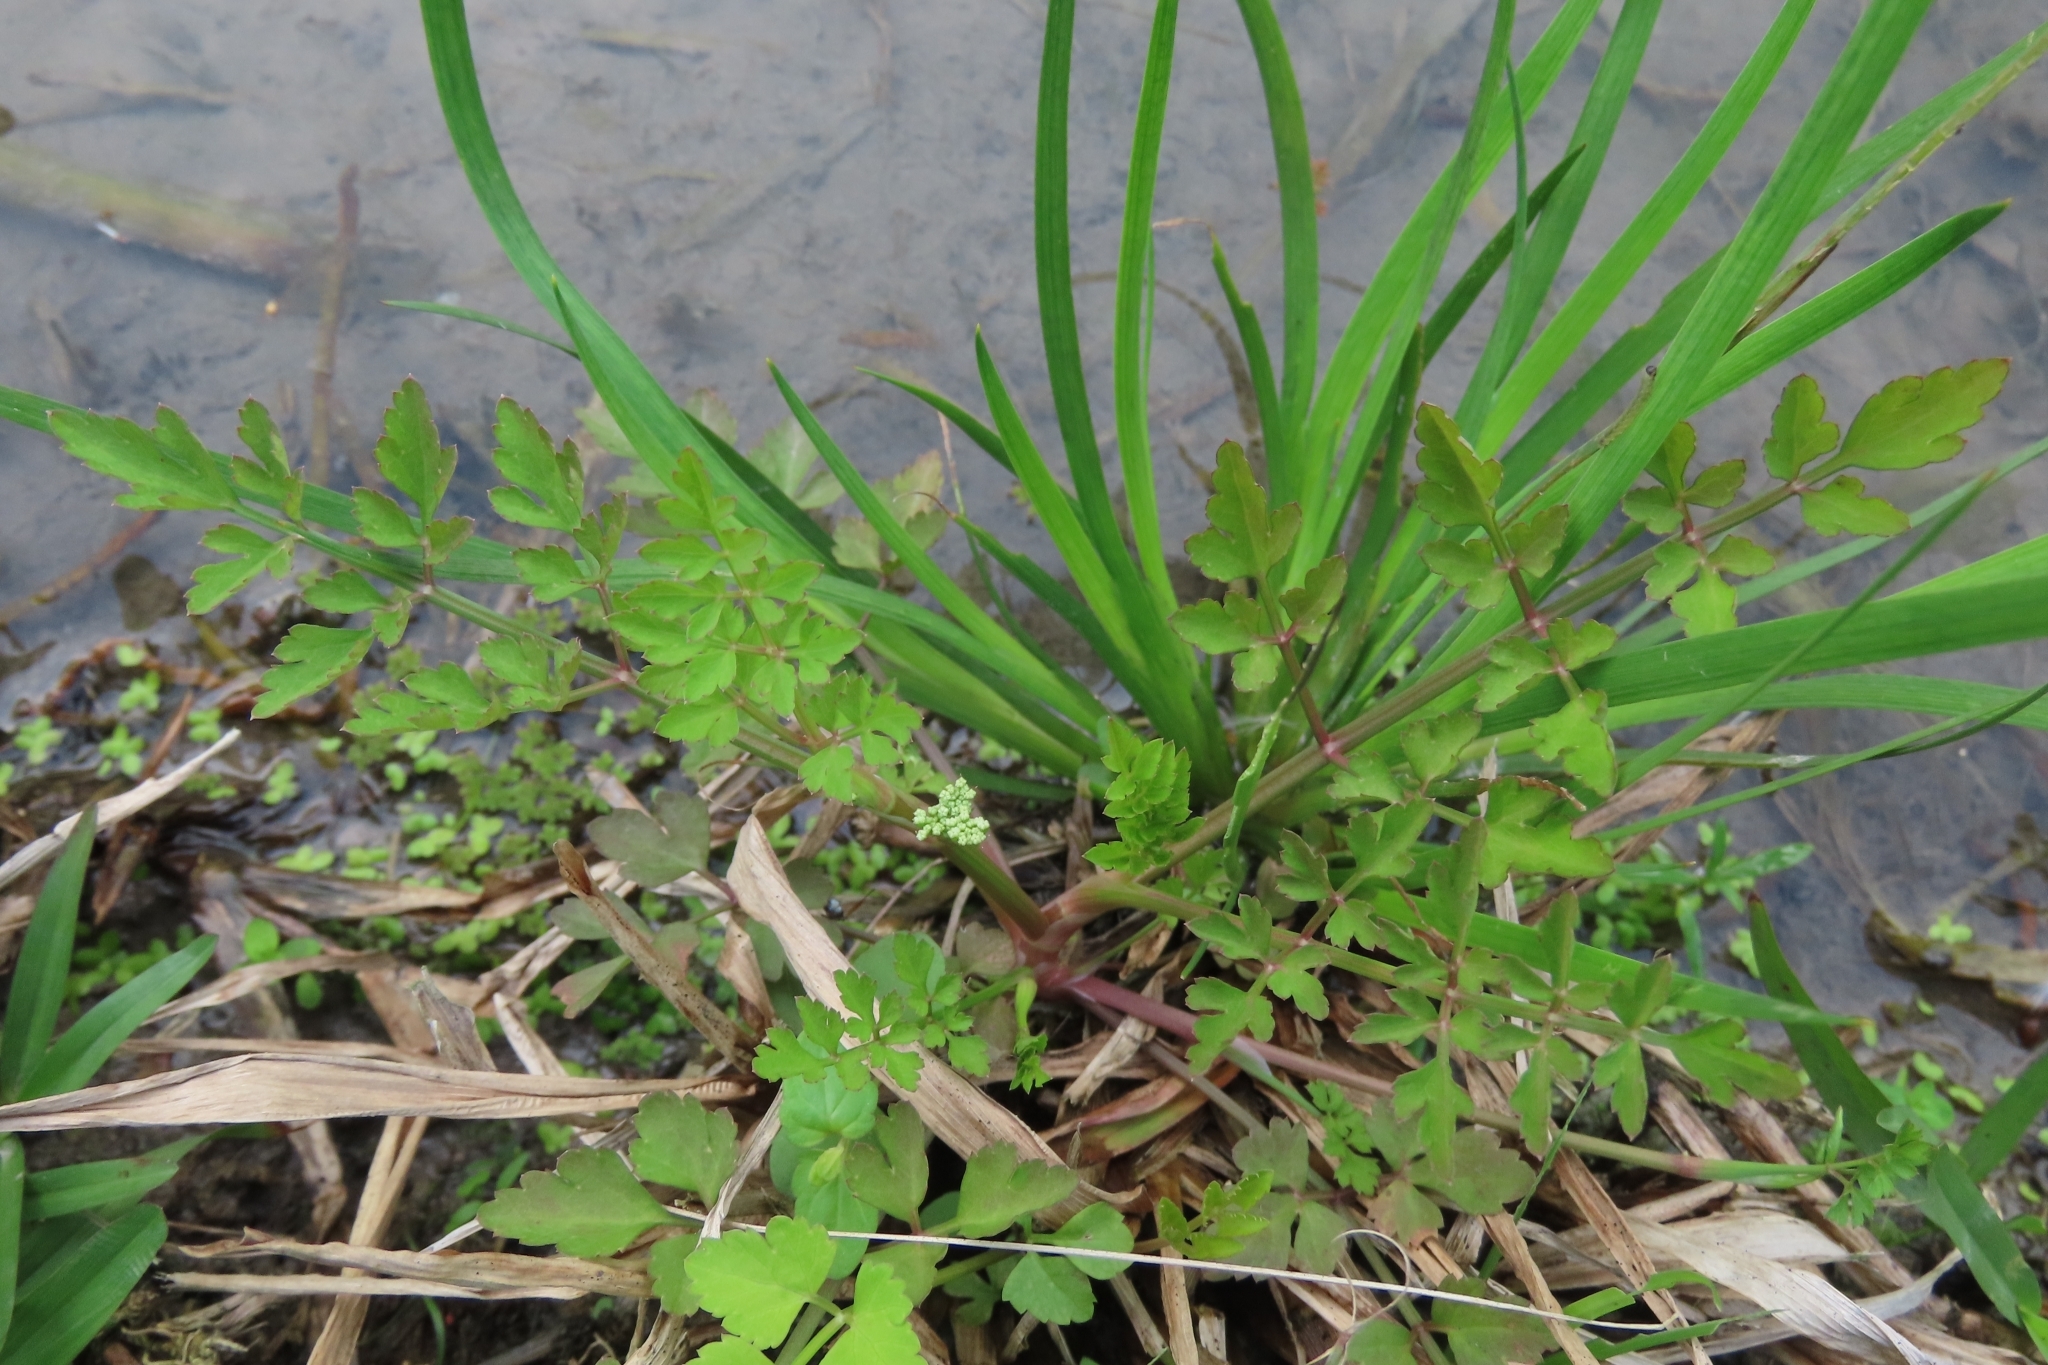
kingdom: Plantae
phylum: Tracheophyta
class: Magnoliopsida
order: Apiales
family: Apiaceae
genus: Oenanthe
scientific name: Oenanthe javanica
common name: Java water-dropwort
